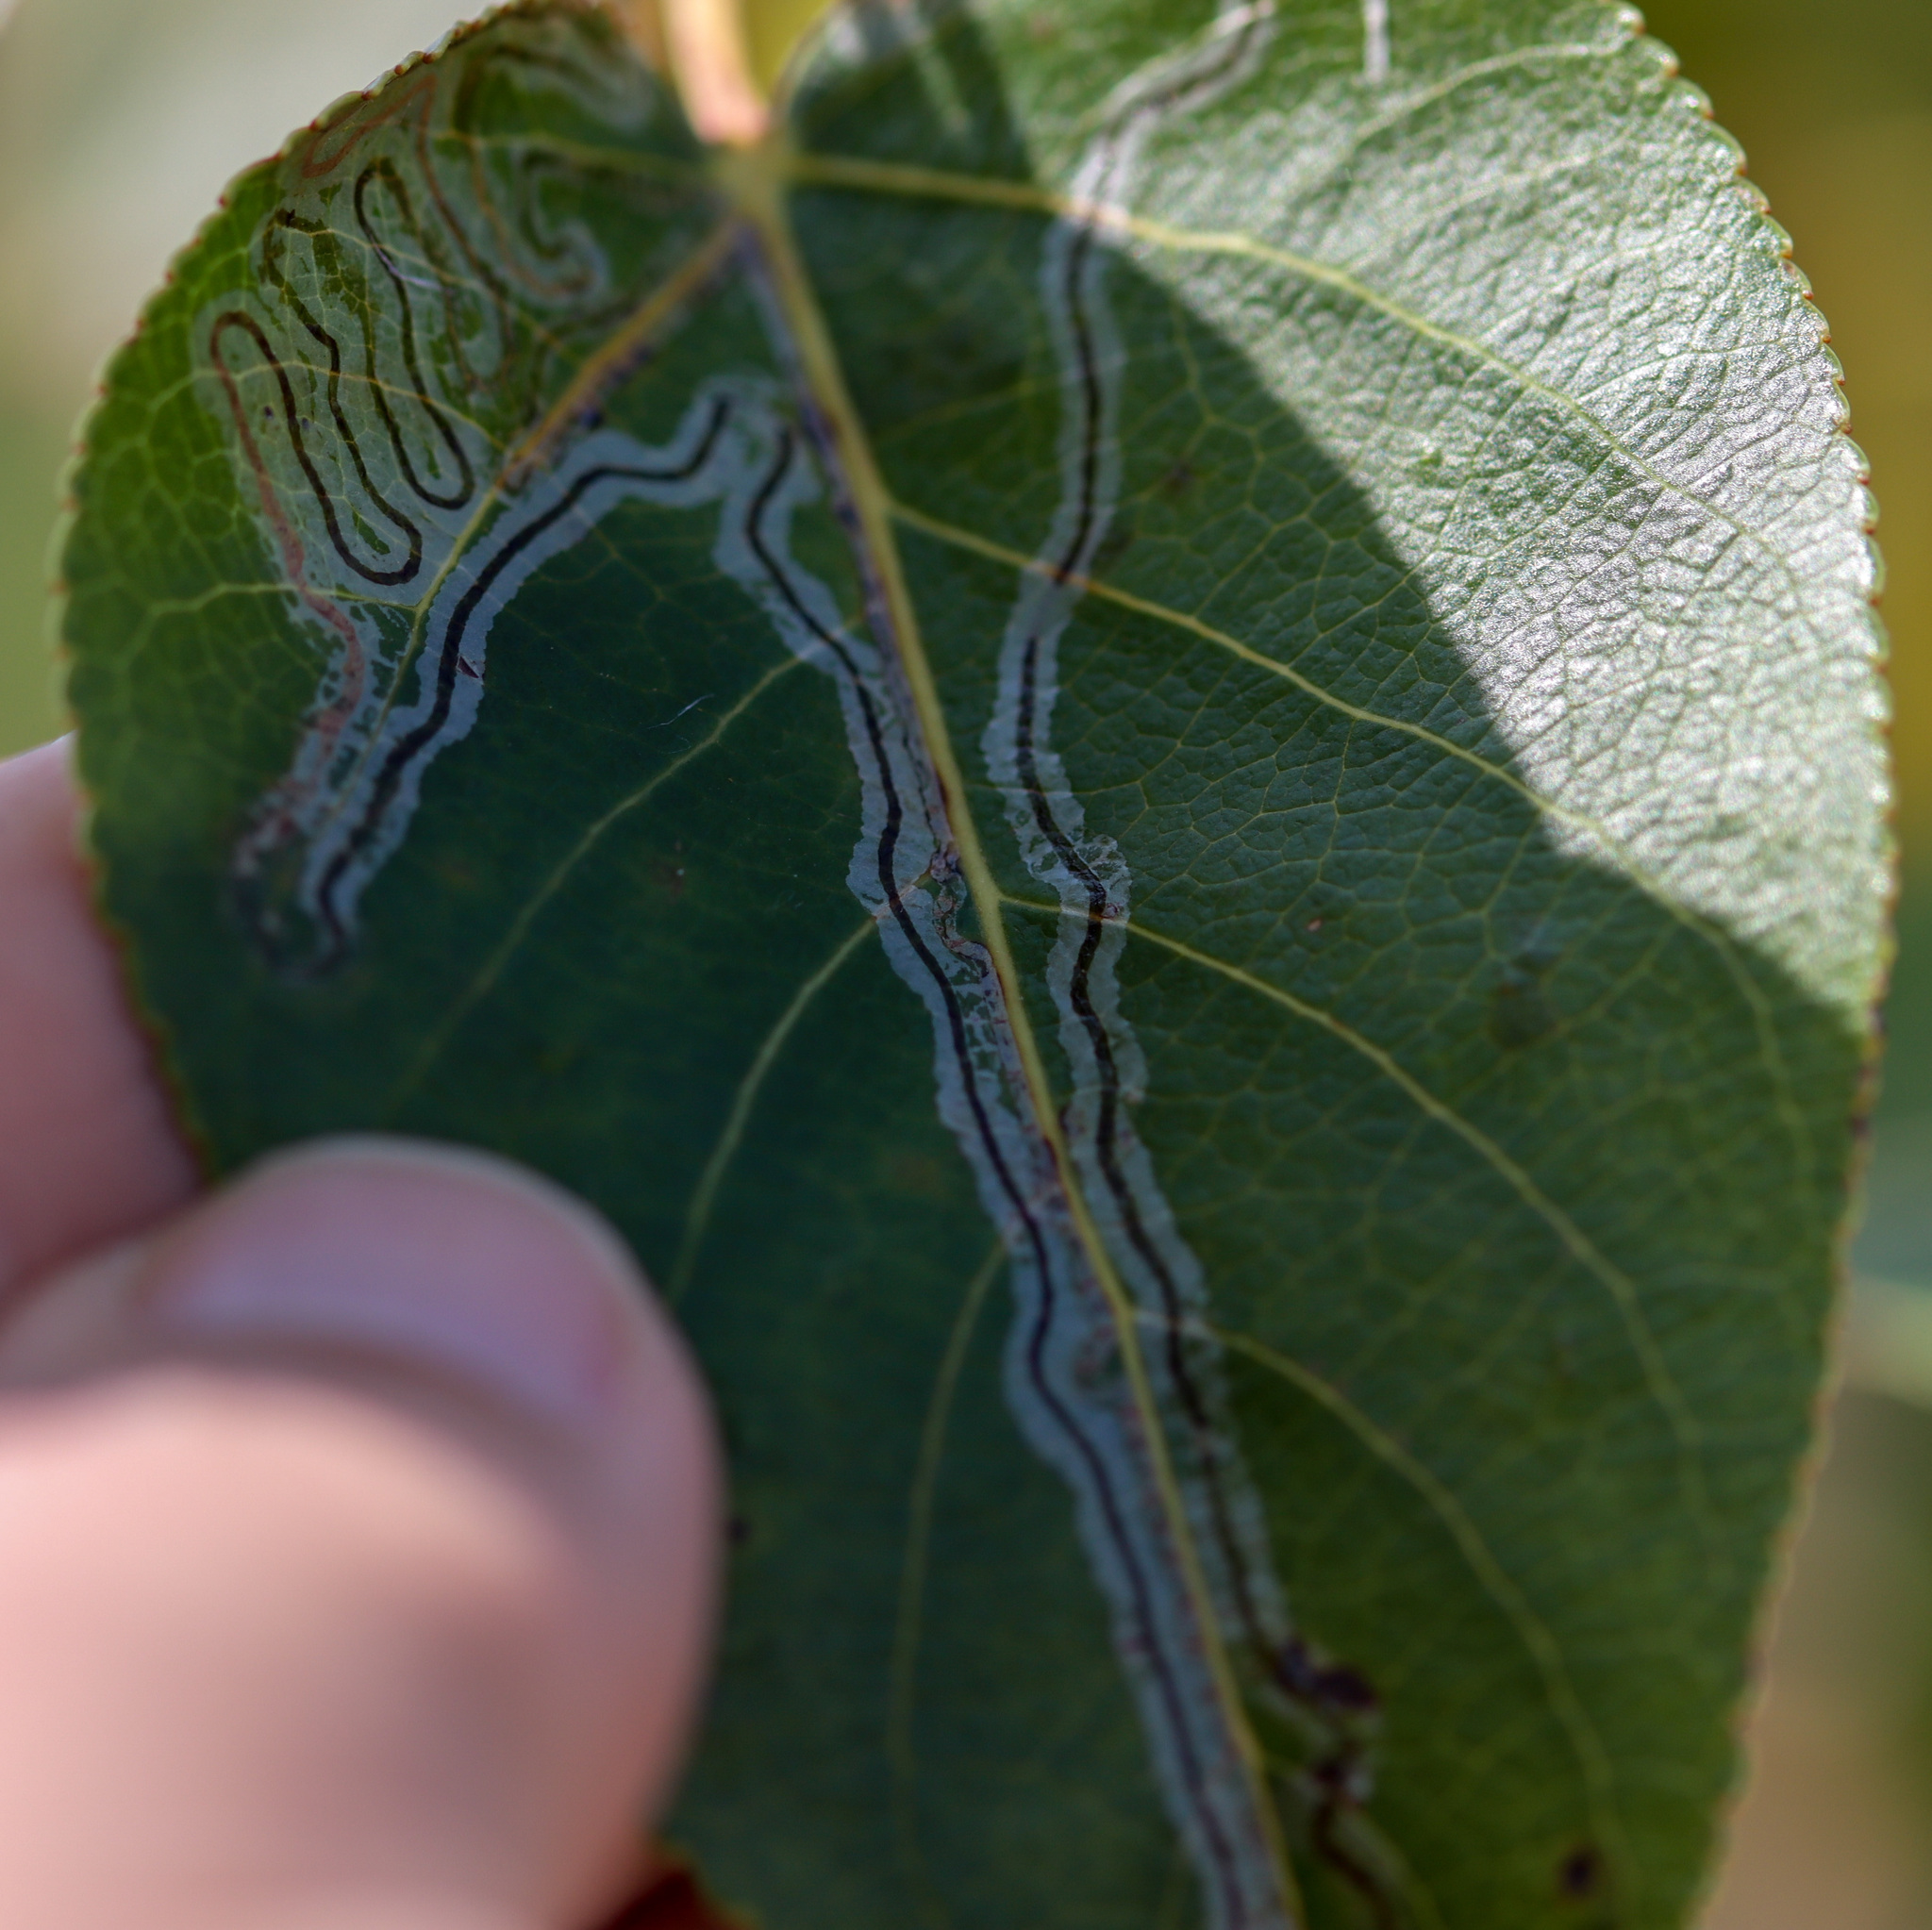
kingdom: Animalia
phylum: Arthropoda
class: Insecta
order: Lepidoptera
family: Gracillariidae
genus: Phyllocnistis
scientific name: Phyllocnistis populiella
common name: Aspen serpentine leafminer moth
